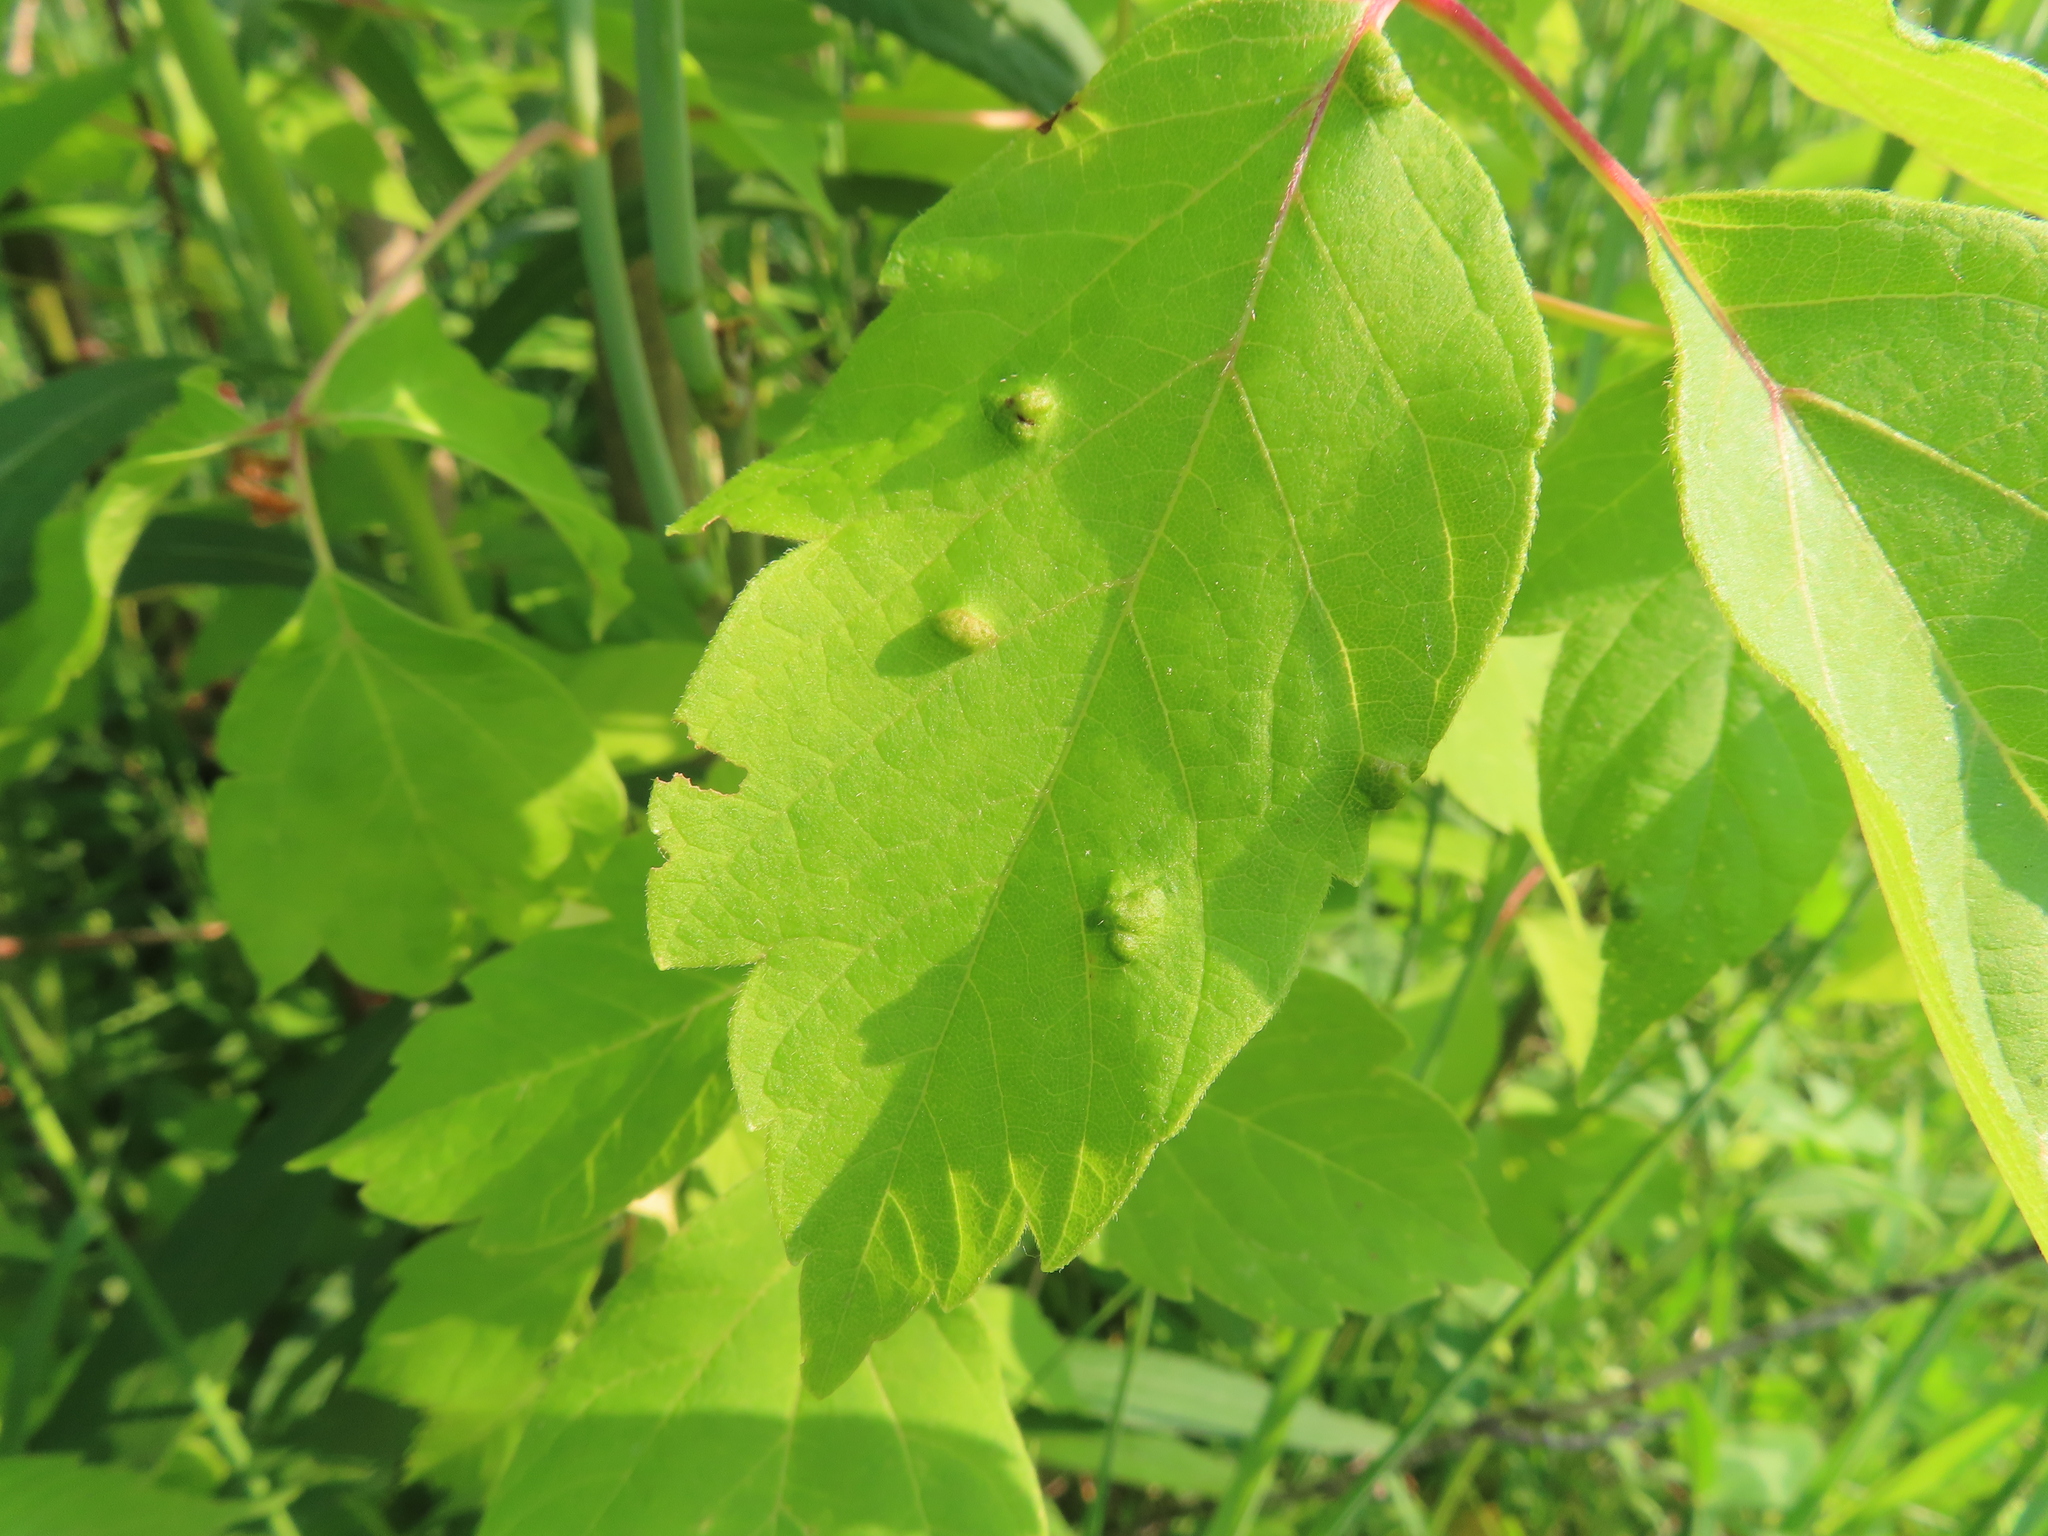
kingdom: Animalia
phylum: Arthropoda
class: Arachnida
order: Trombidiformes
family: Eriophyidae
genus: Aceria
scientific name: Aceria
